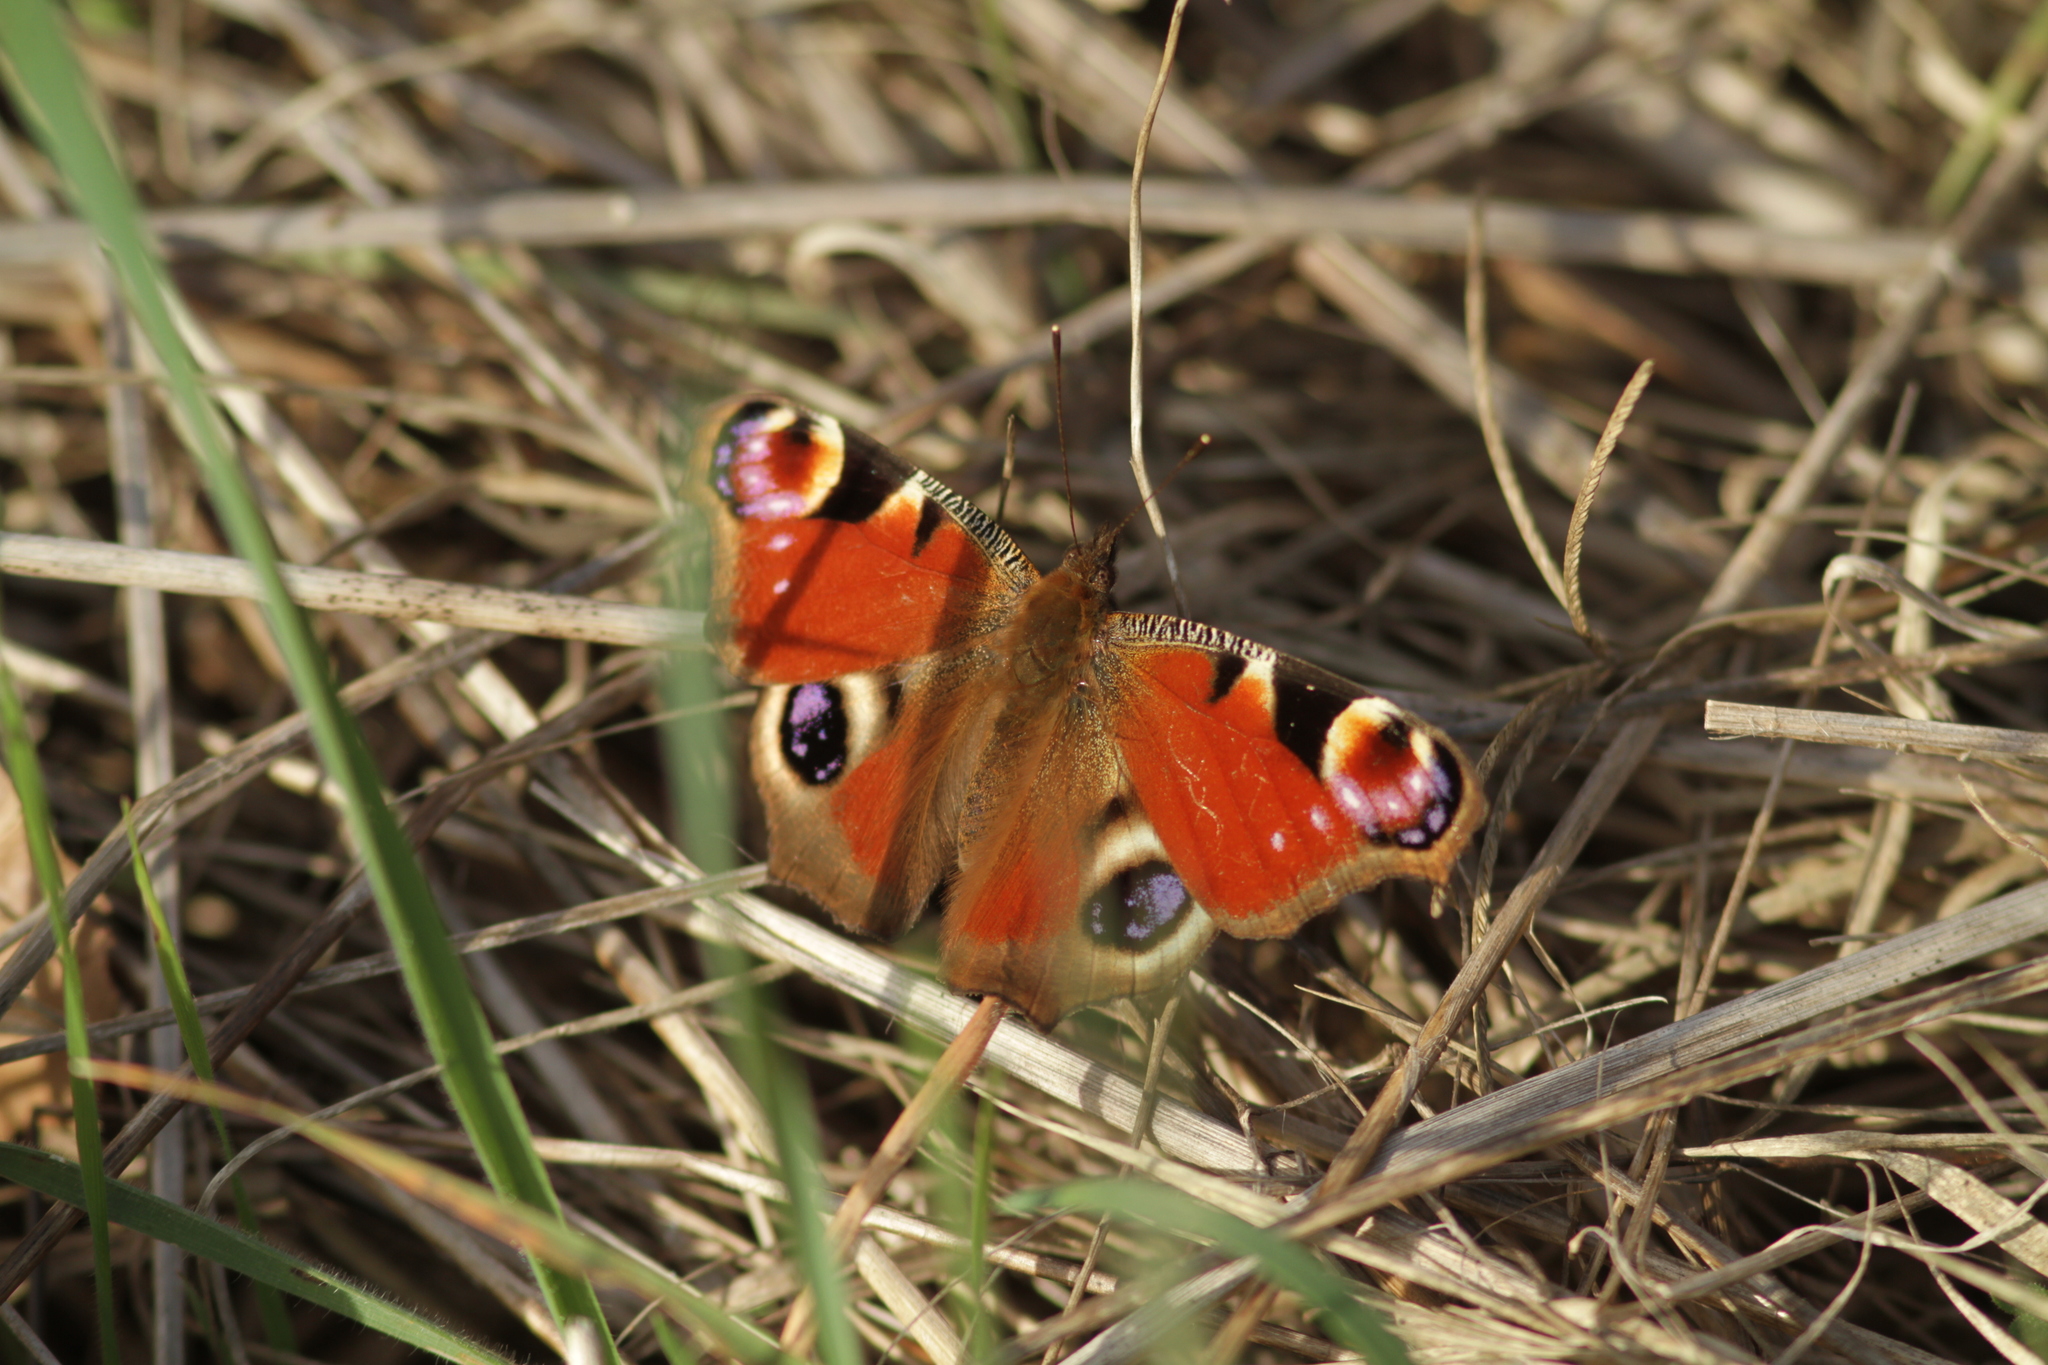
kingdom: Animalia
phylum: Arthropoda
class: Insecta
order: Lepidoptera
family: Nymphalidae
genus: Aglais
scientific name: Aglais io
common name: Peacock
